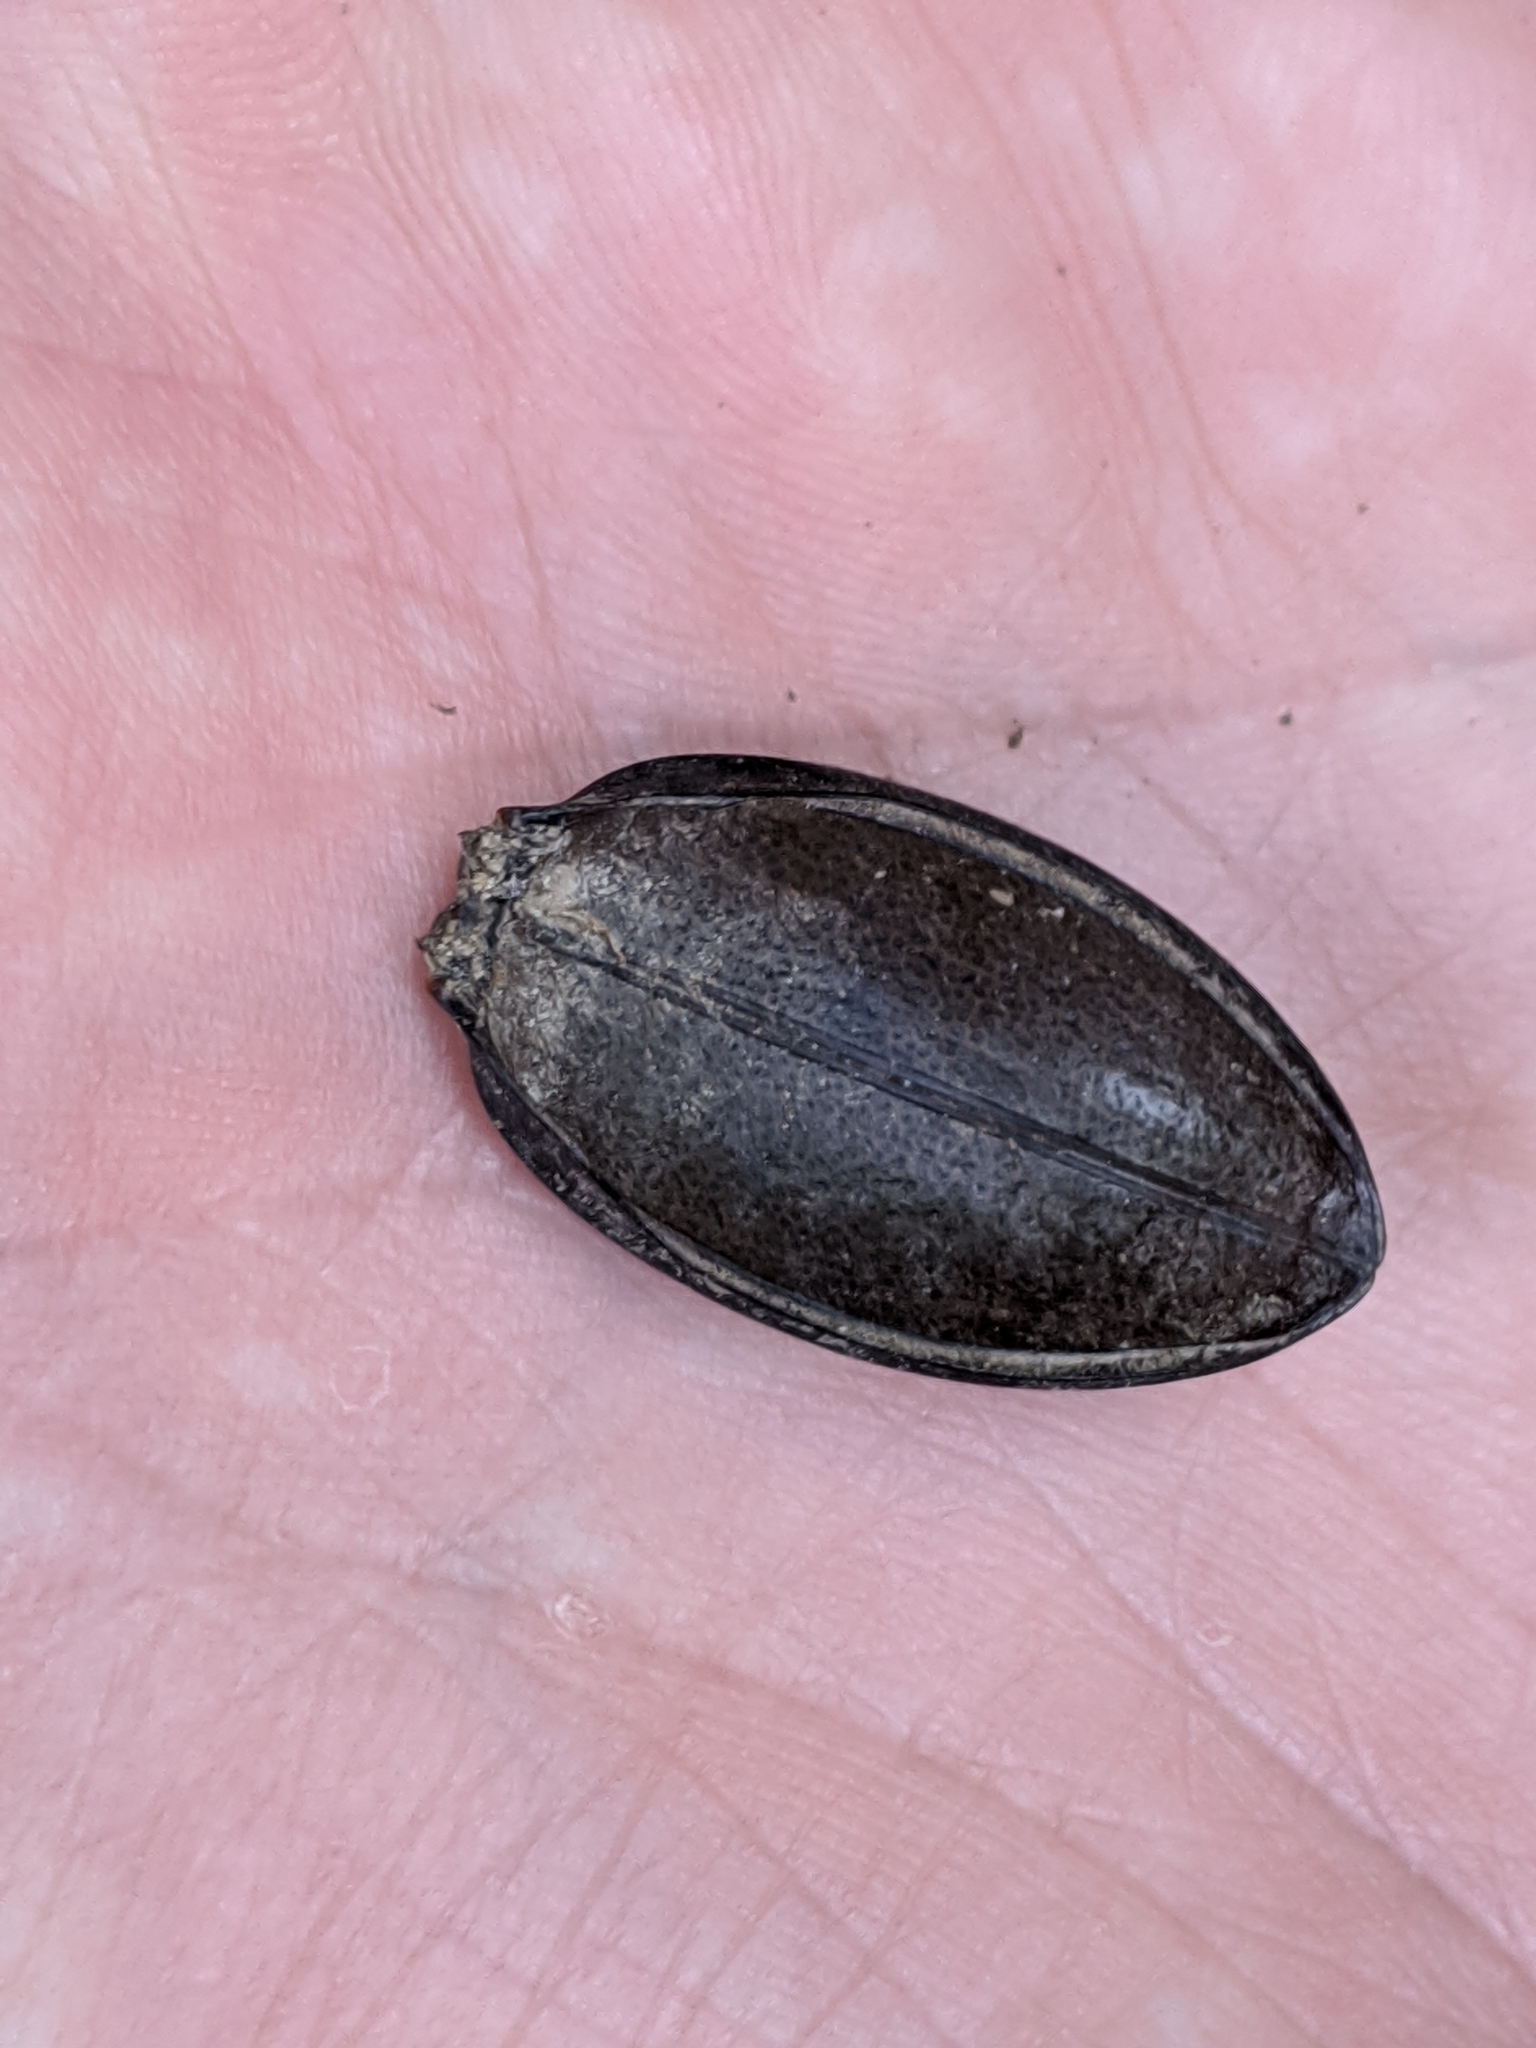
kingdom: Animalia
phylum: Arthropoda
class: Insecta
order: Coleoptera
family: Carabidae
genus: Carabus
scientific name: Carabus coriaceus
